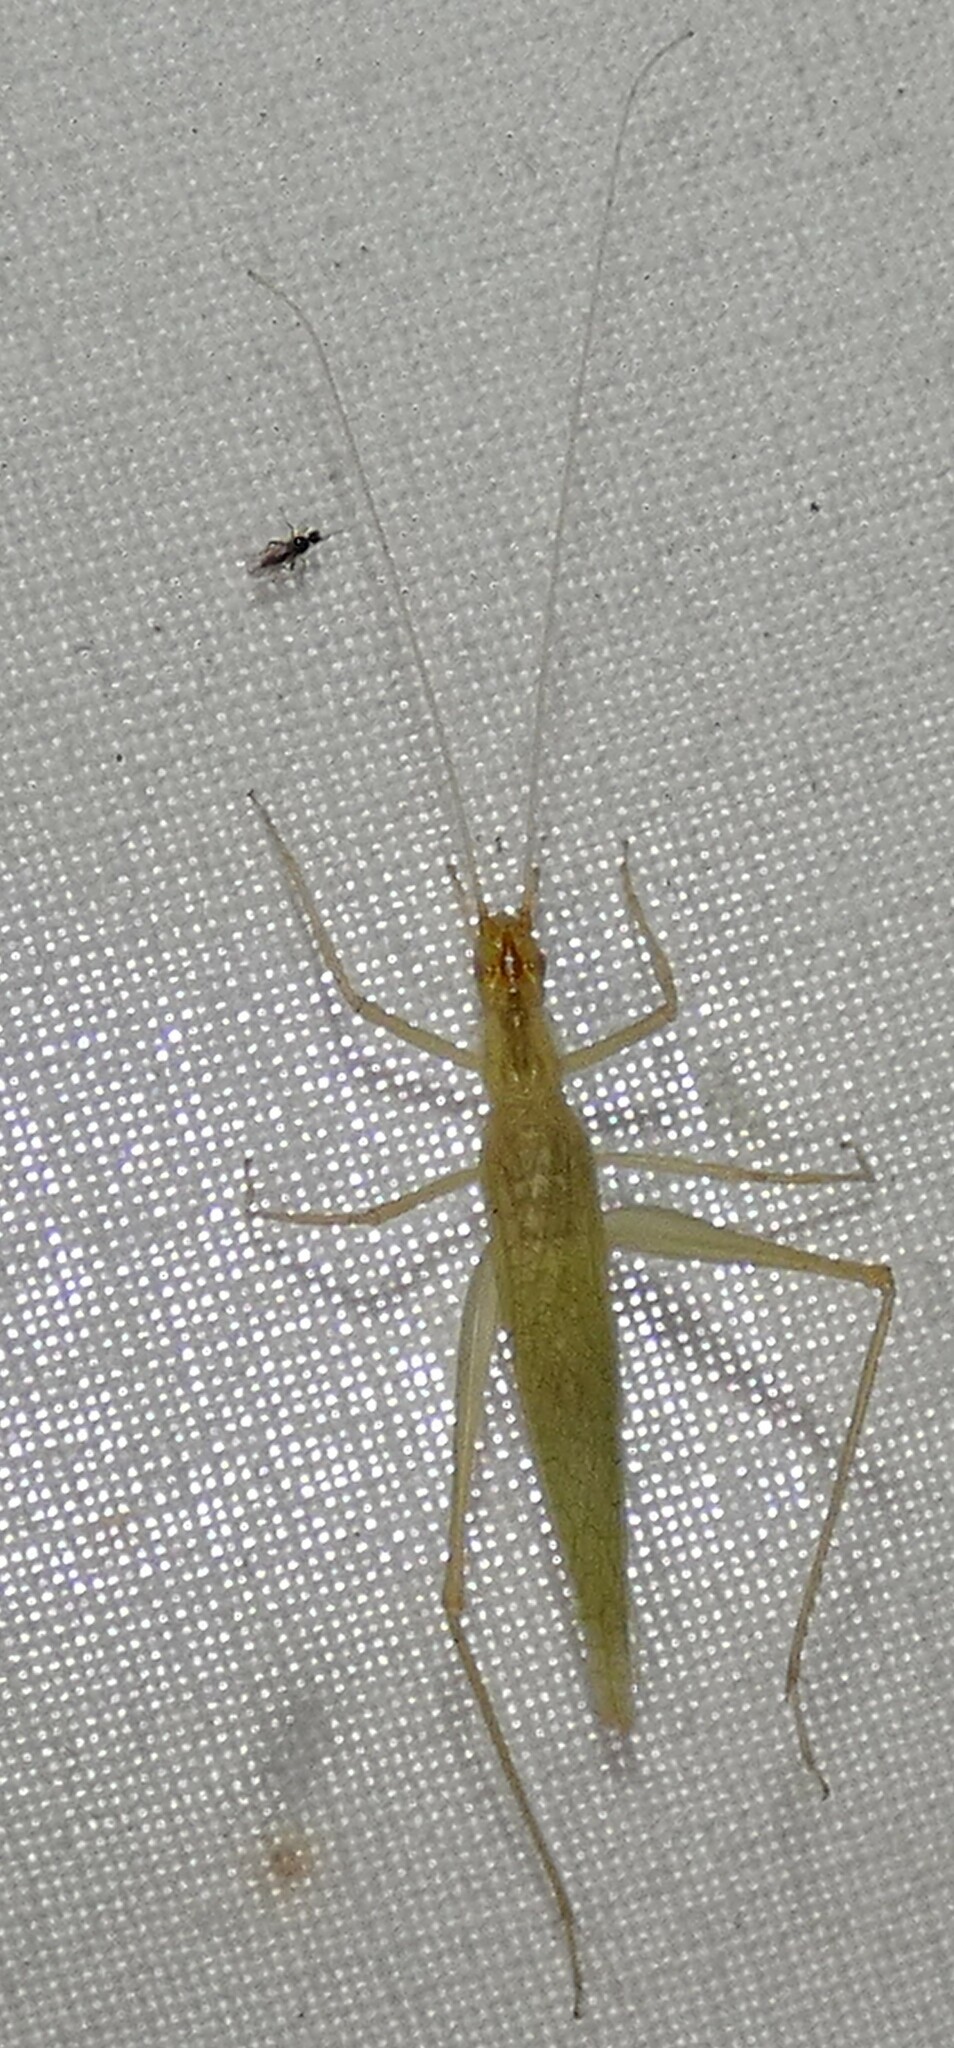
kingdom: Animalia
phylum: Arthropoda
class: Insecta
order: Orthoptera
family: Gryllidae
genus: Oecanthus
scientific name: Oecanthus niveus
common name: Narrow-winged tree cricket
